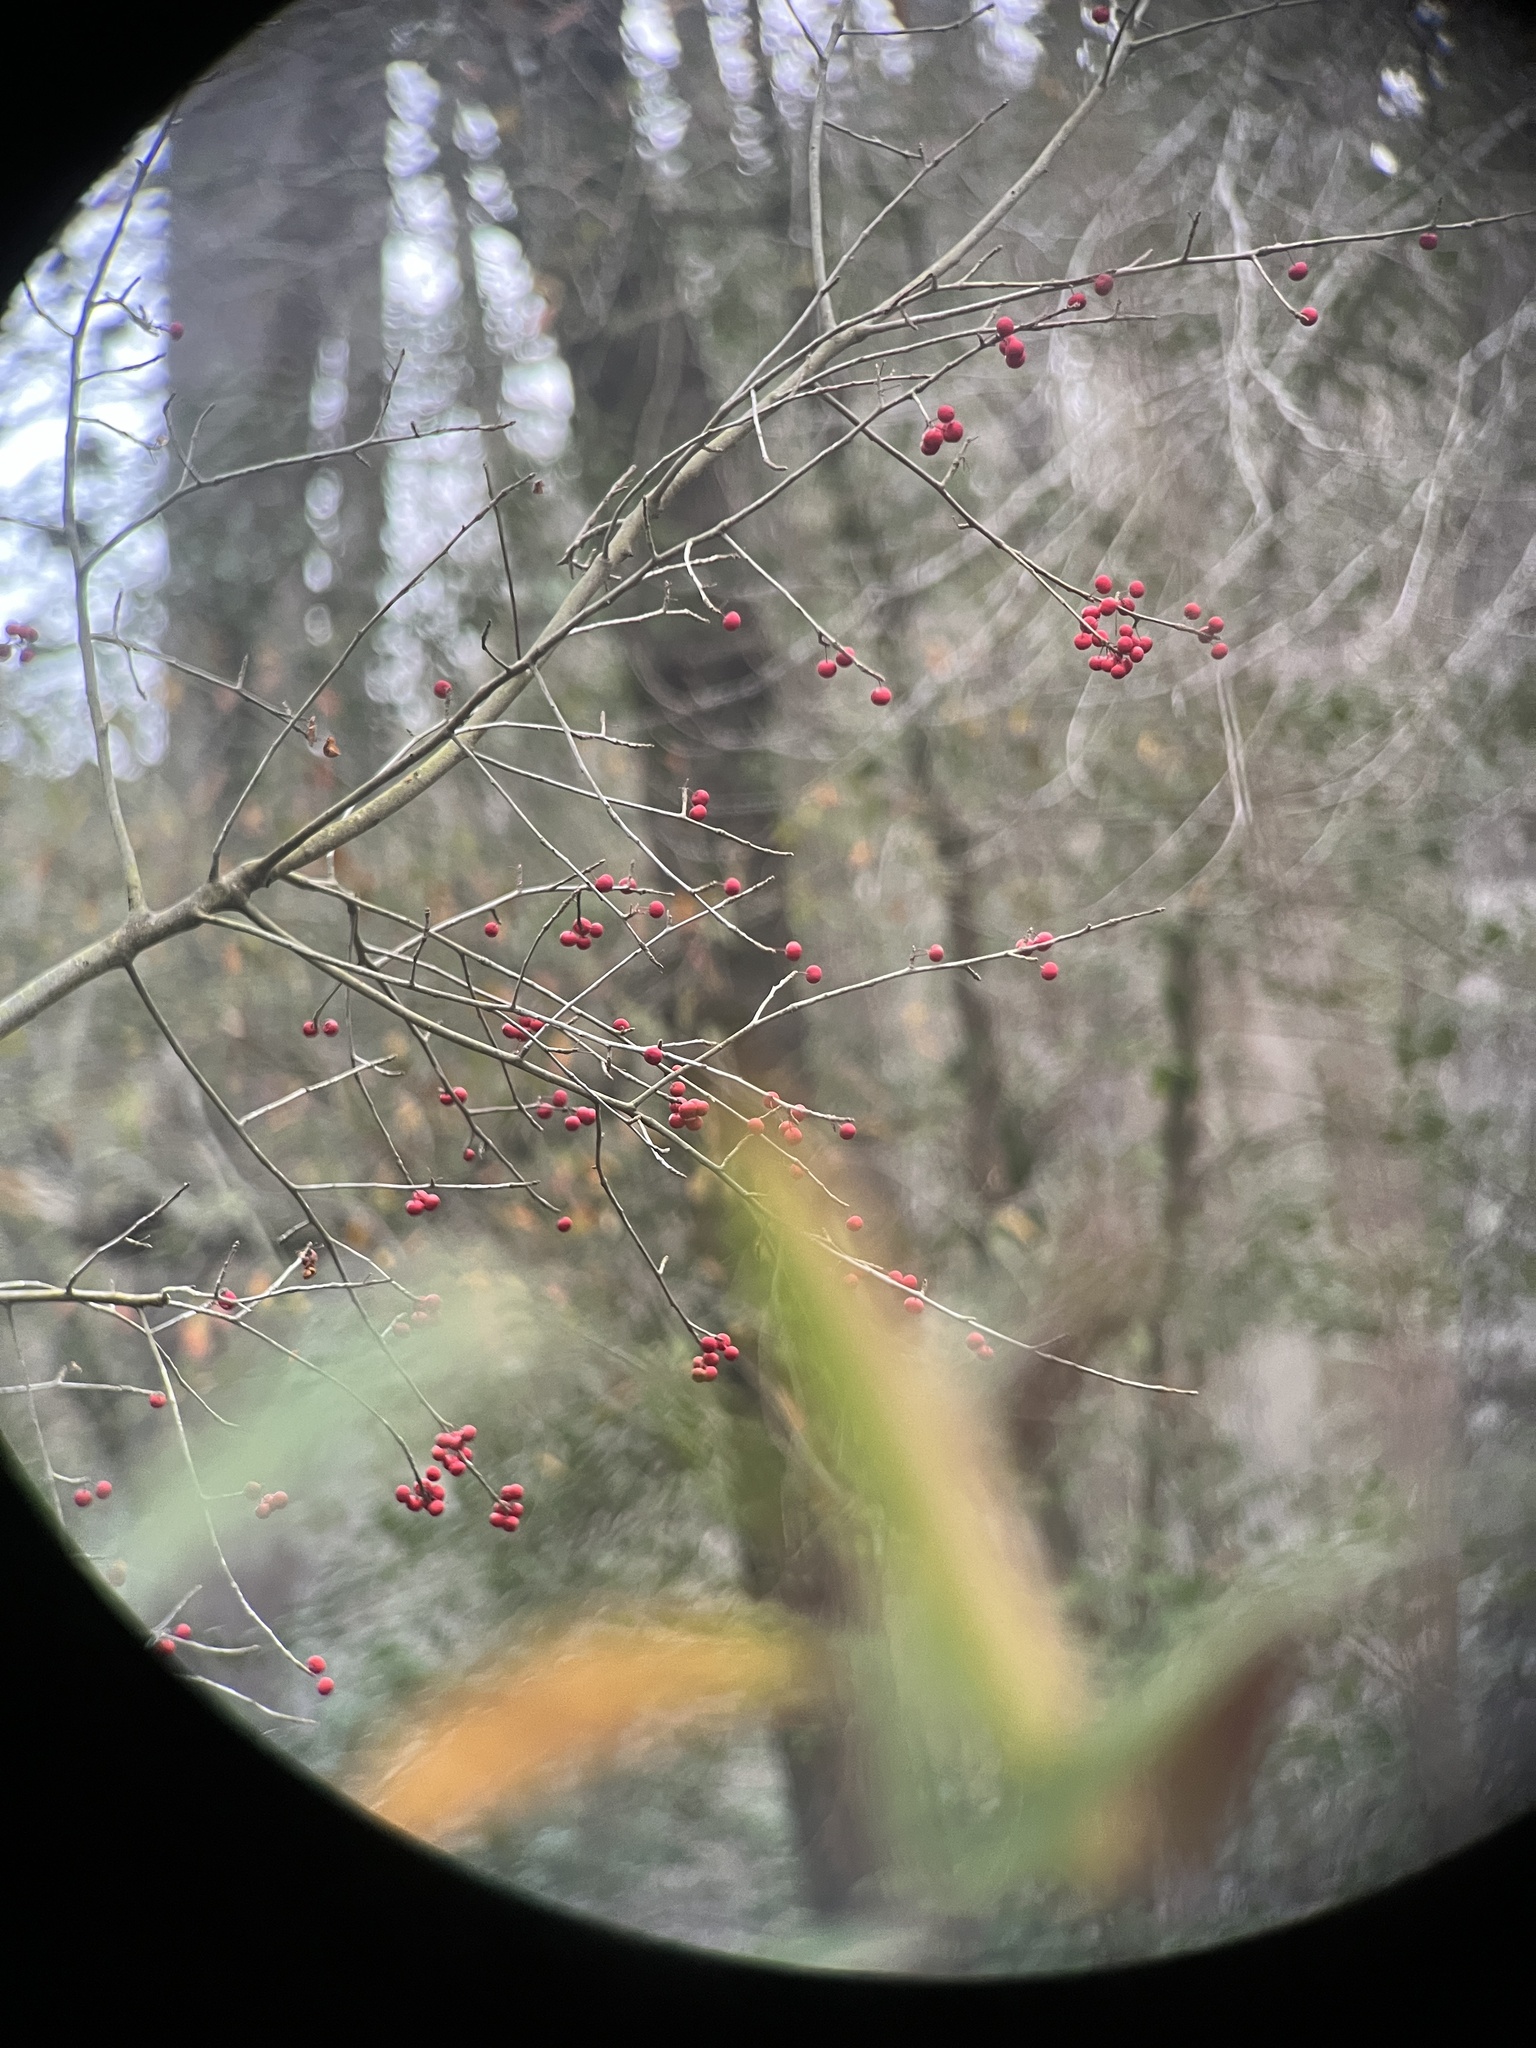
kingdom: Plantae
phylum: Tracheophyta
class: Magnoliopsida
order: Aquifoliales
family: Aquifoliaceae
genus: Ilex
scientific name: Ilex amelanchier
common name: Sarvis holly
